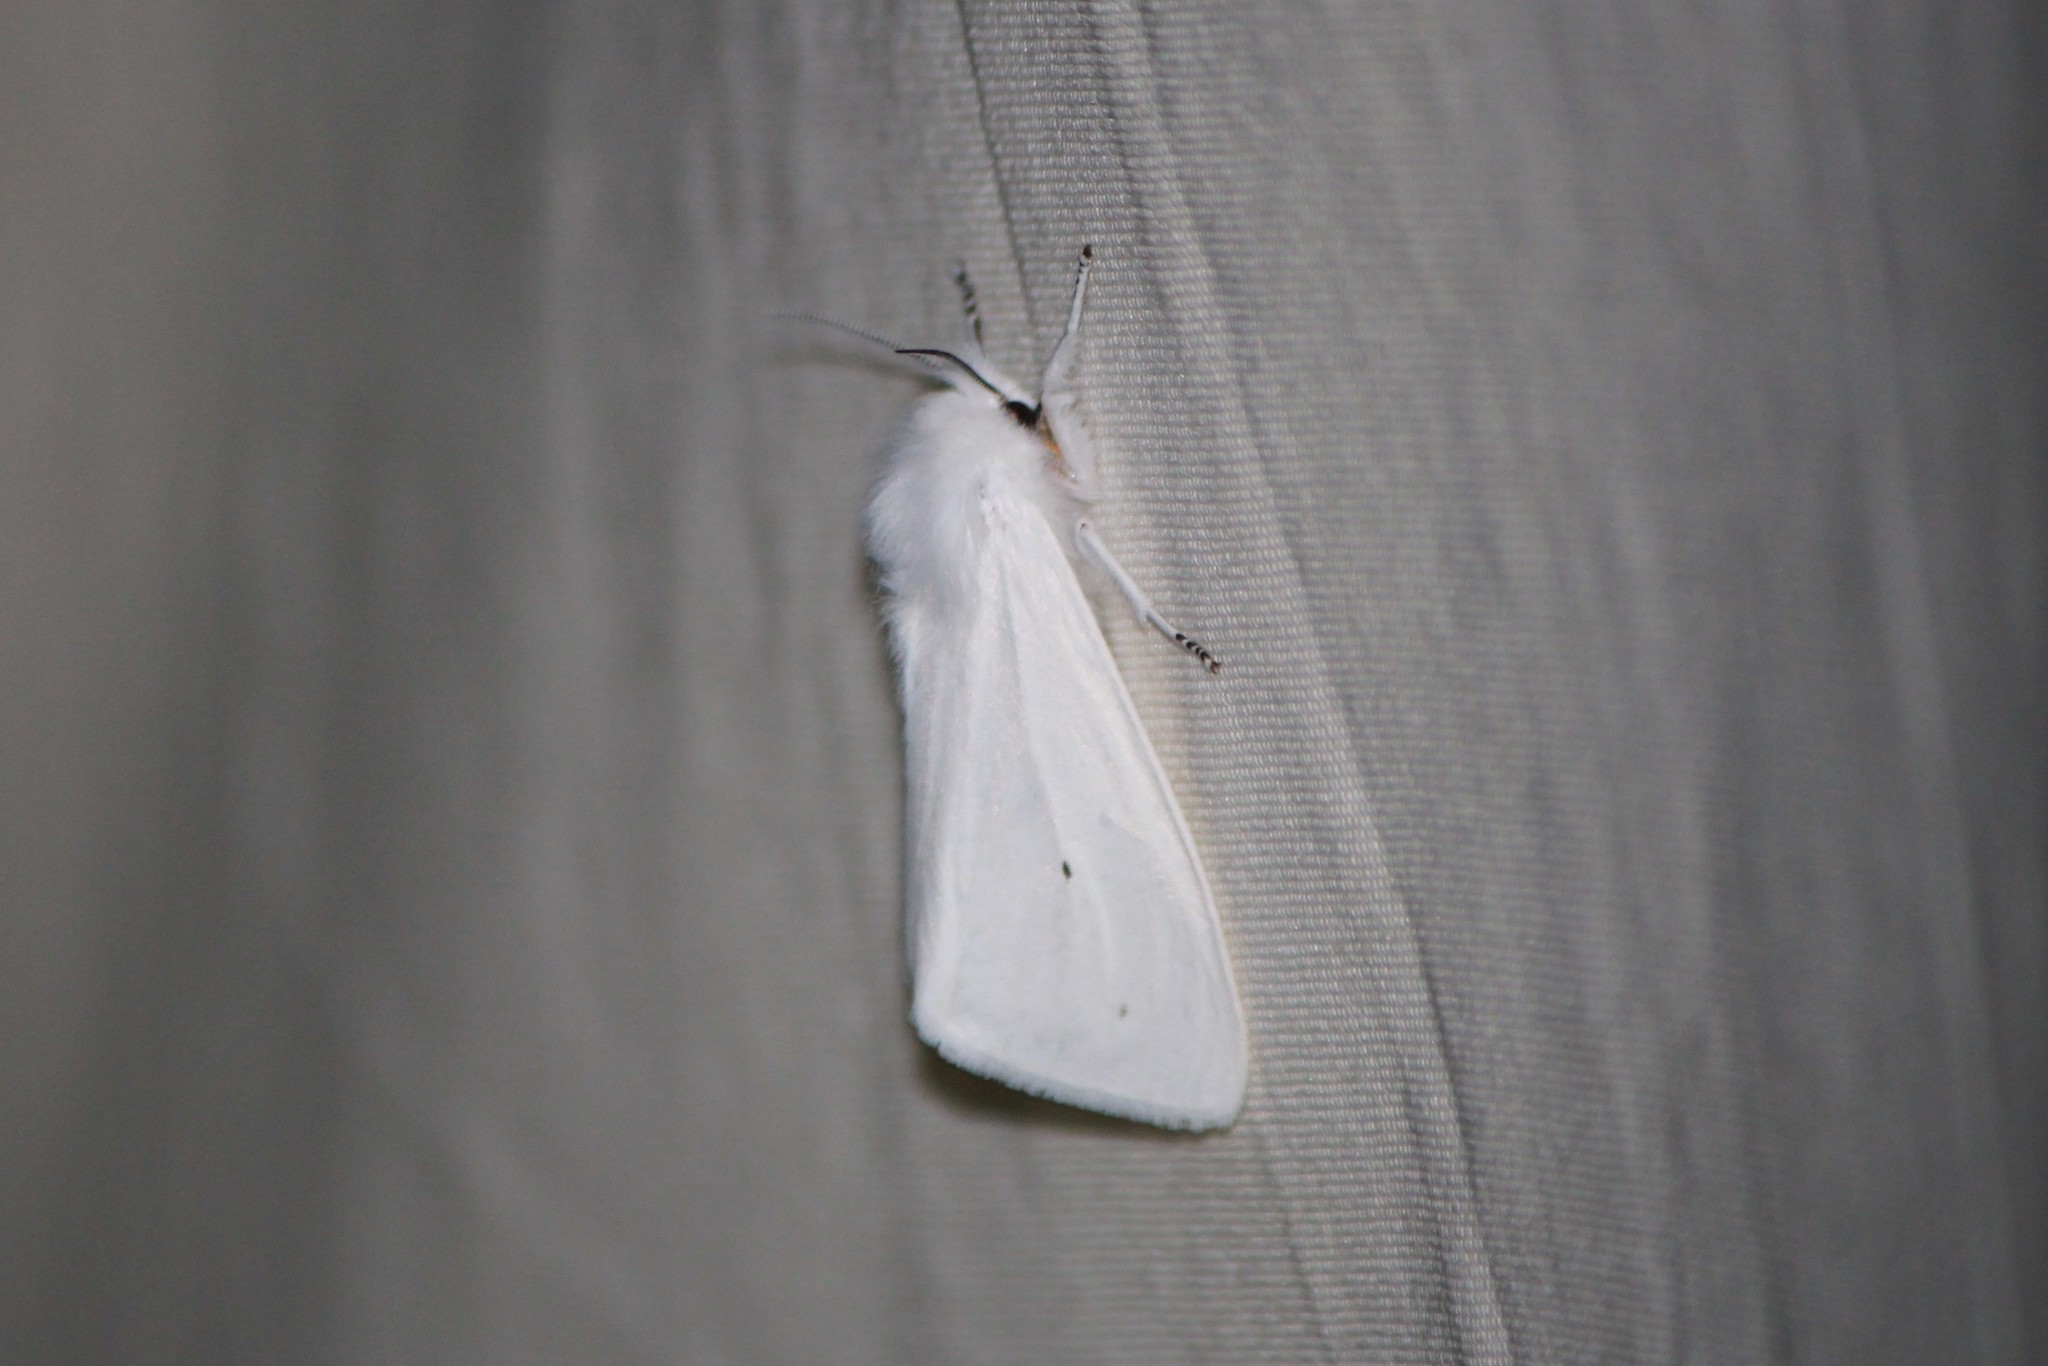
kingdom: Animalia
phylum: Arthropoda
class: Insecta
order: Lepidoptera
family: Erebidae
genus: Spilosoma
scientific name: Spilosoma virginica
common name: Virginia tiger moth
